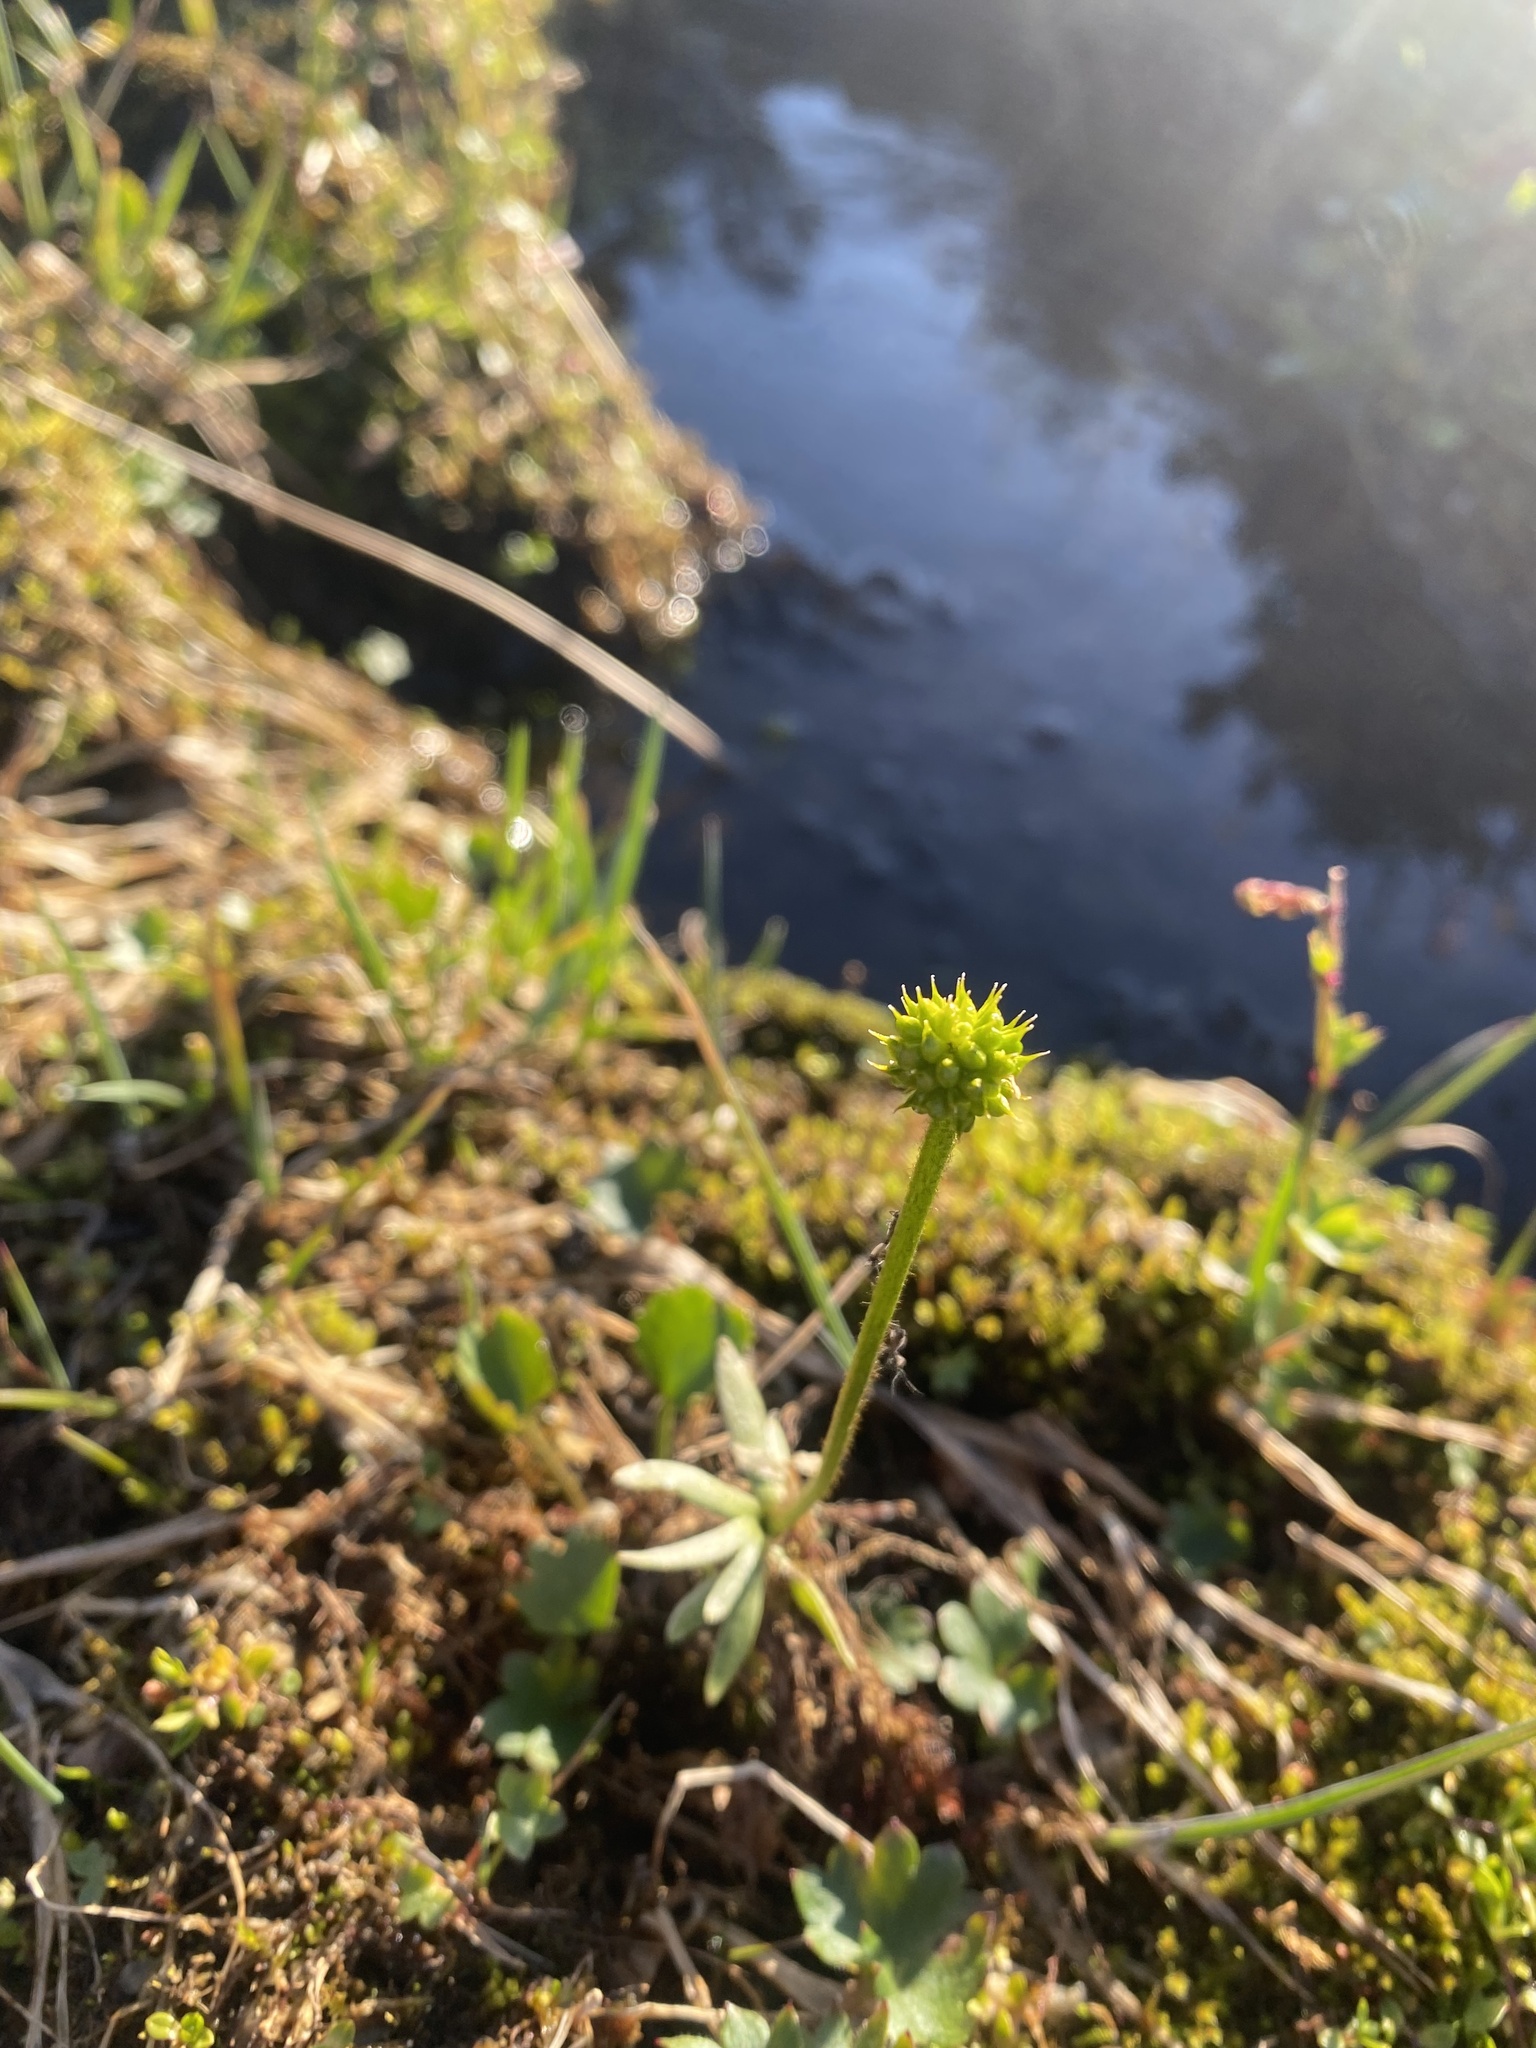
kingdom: Plantae
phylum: Tracheophyta
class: Magnoliopsida
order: Ranunculales
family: Ranunculaceae
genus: Ranunculus
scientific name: Ranunculus sulphureus
